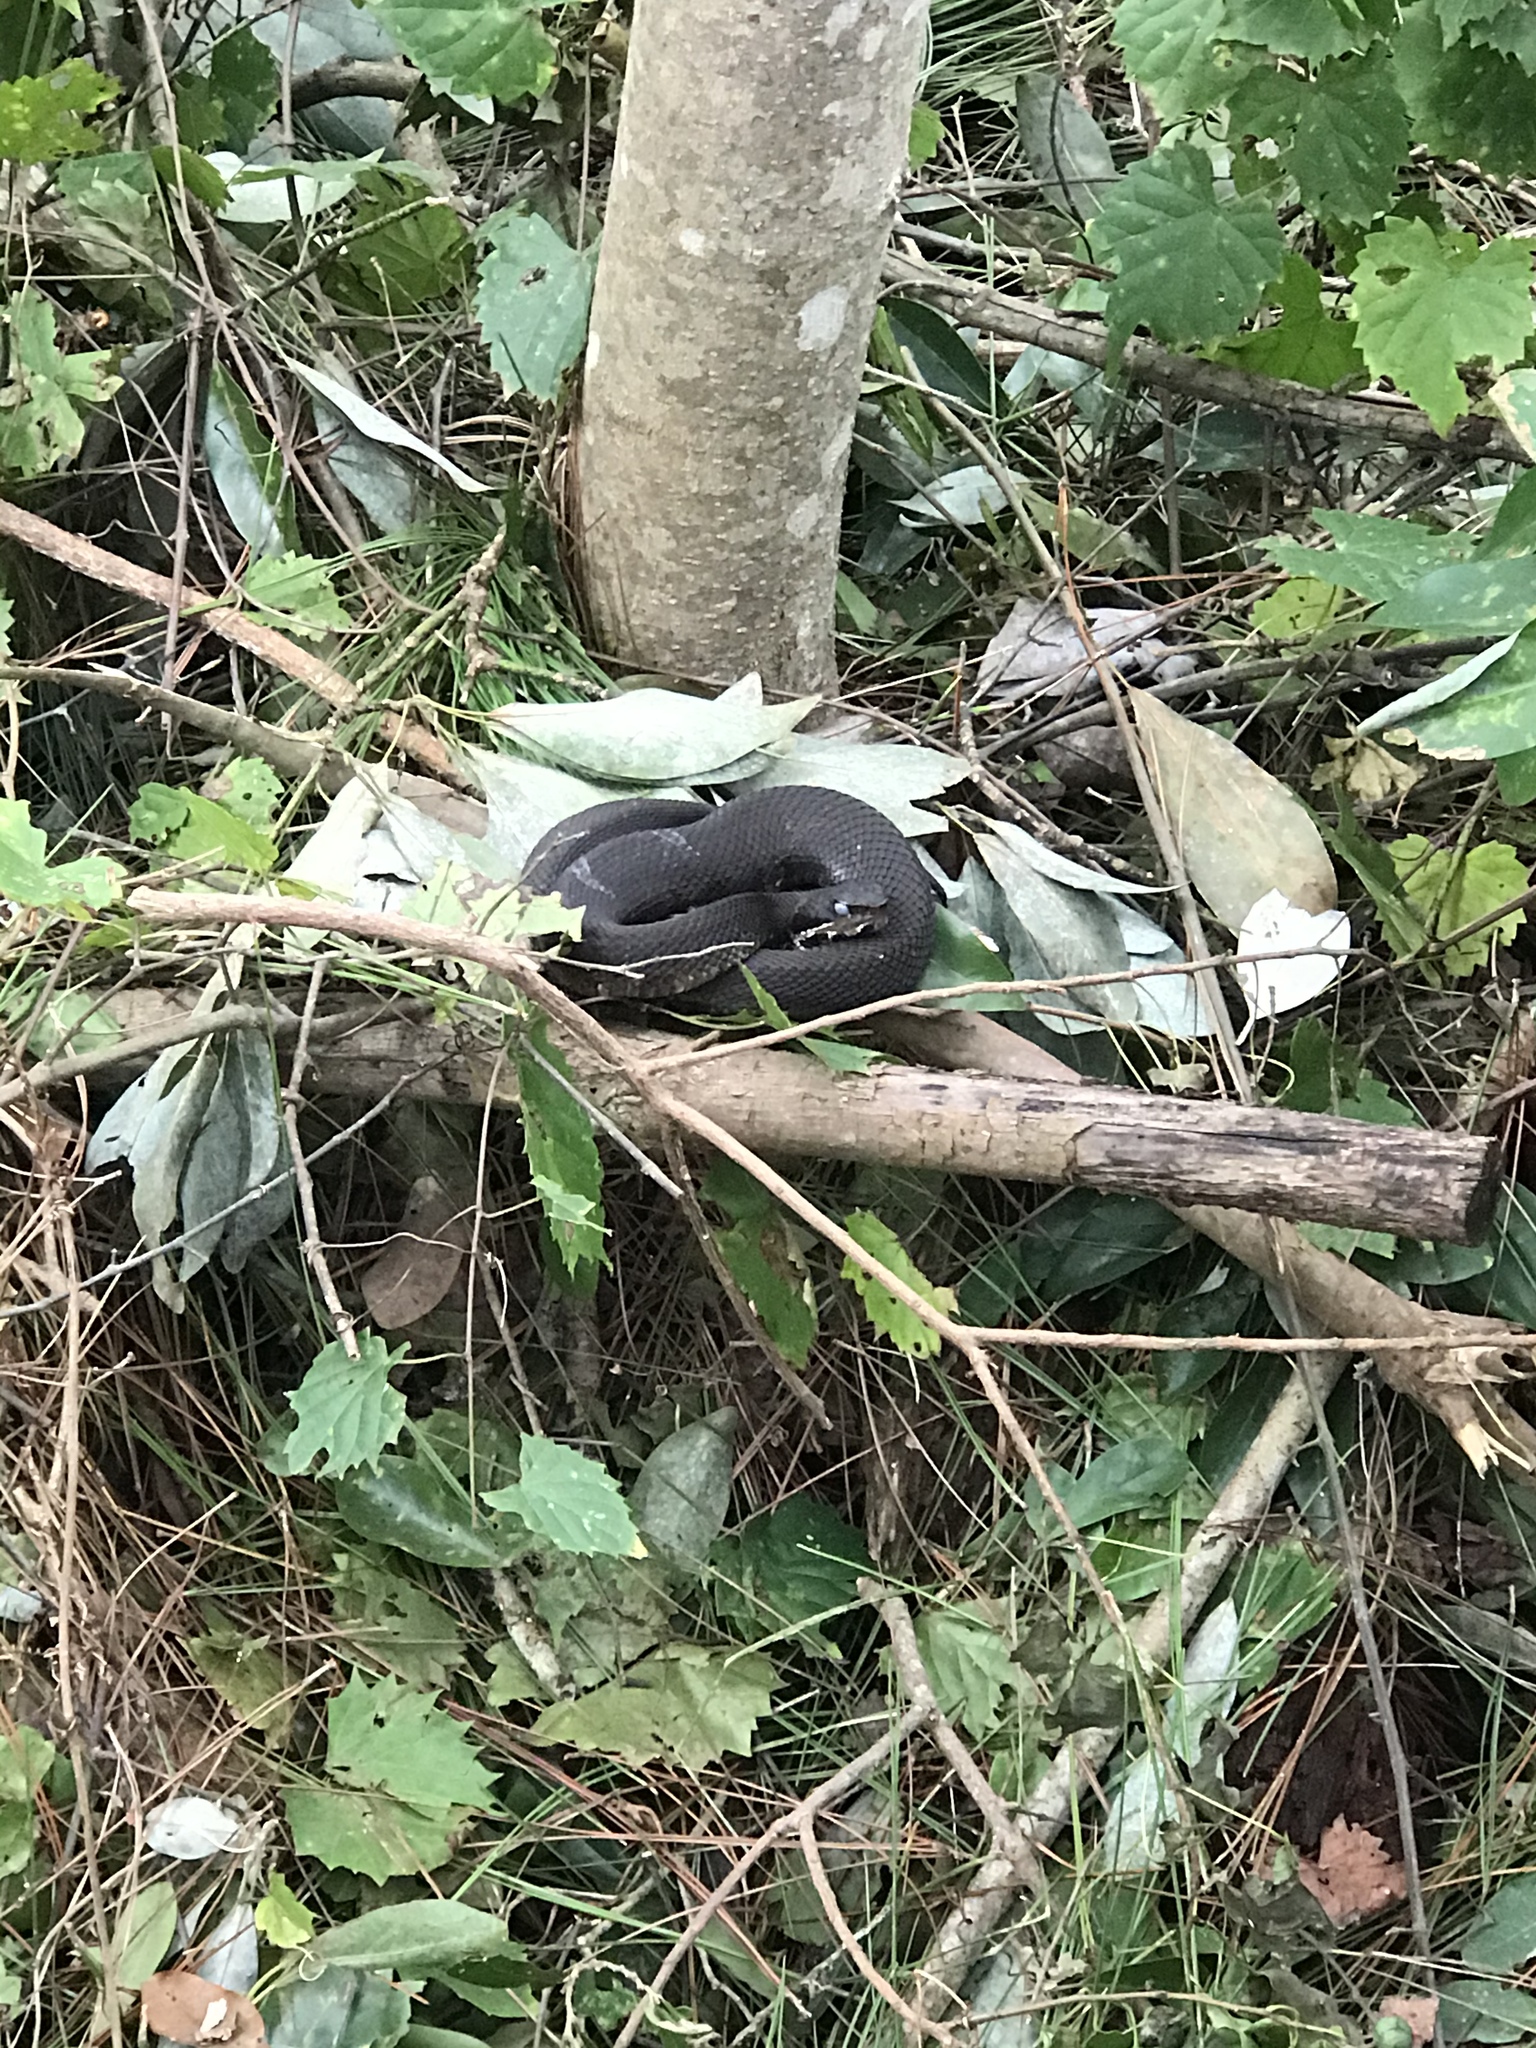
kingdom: Animalia
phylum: Chordata
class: Squamata
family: Viperidae
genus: Agkistrodon
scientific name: Agkistrodon piscivorus
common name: Cottonmouth
